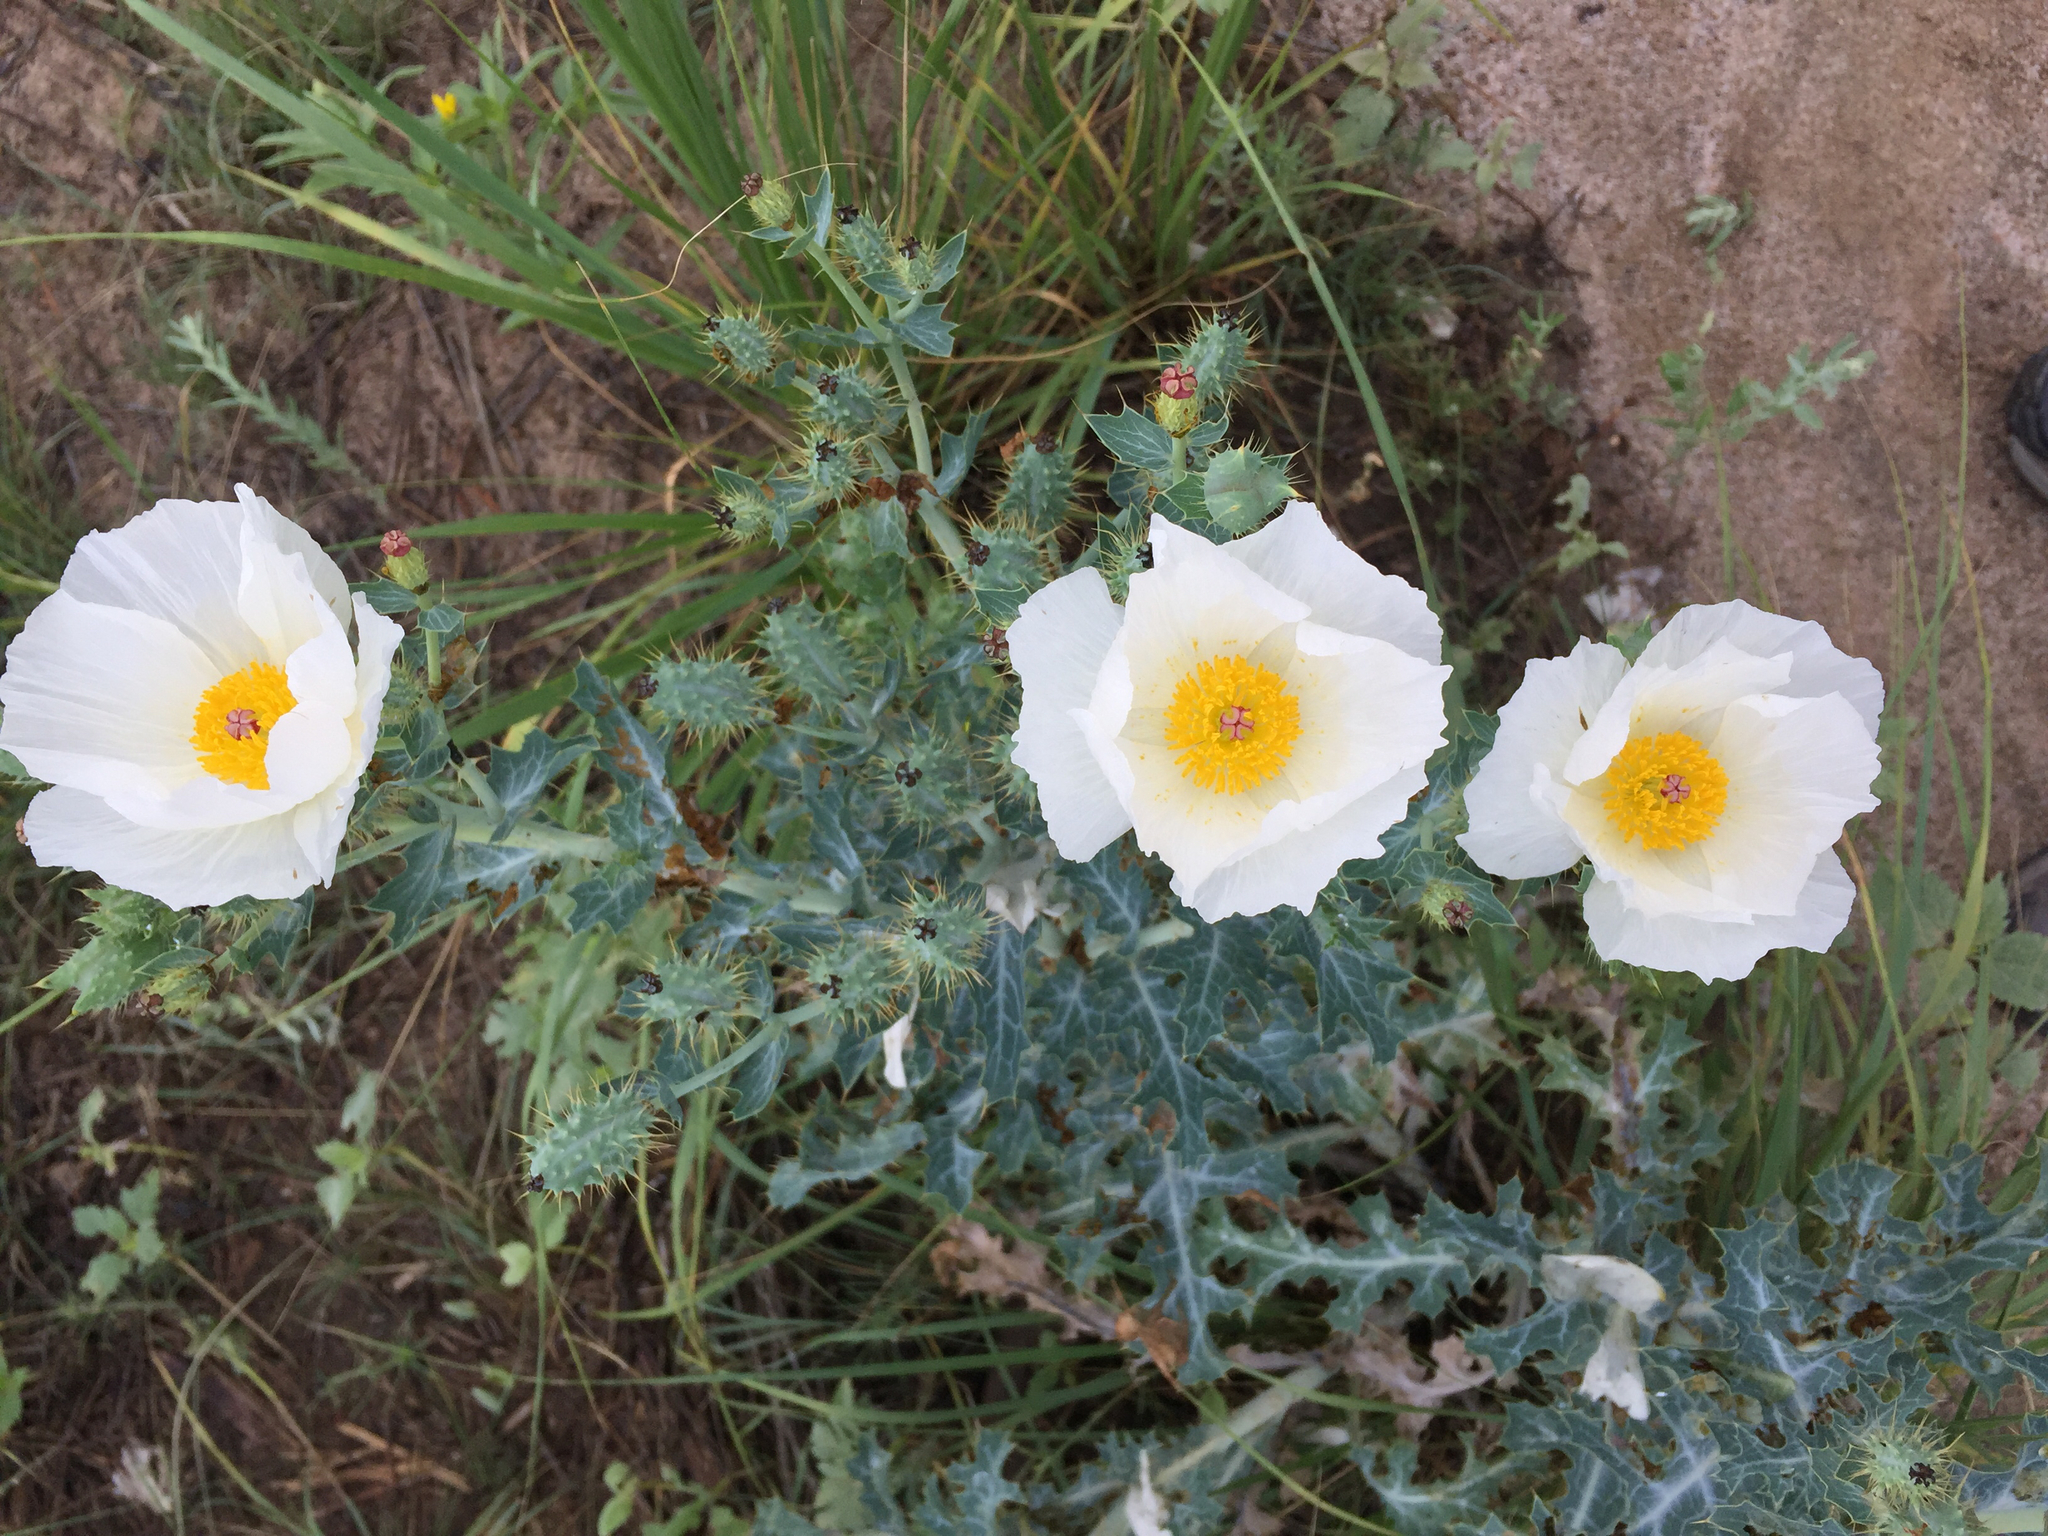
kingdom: Plantae
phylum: Tracheophyta
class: Magnoliopsida
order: Ranunculales
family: Papaveraceae
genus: Argemone
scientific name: Argemone polyanthemos
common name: Plains prickly-poppy
